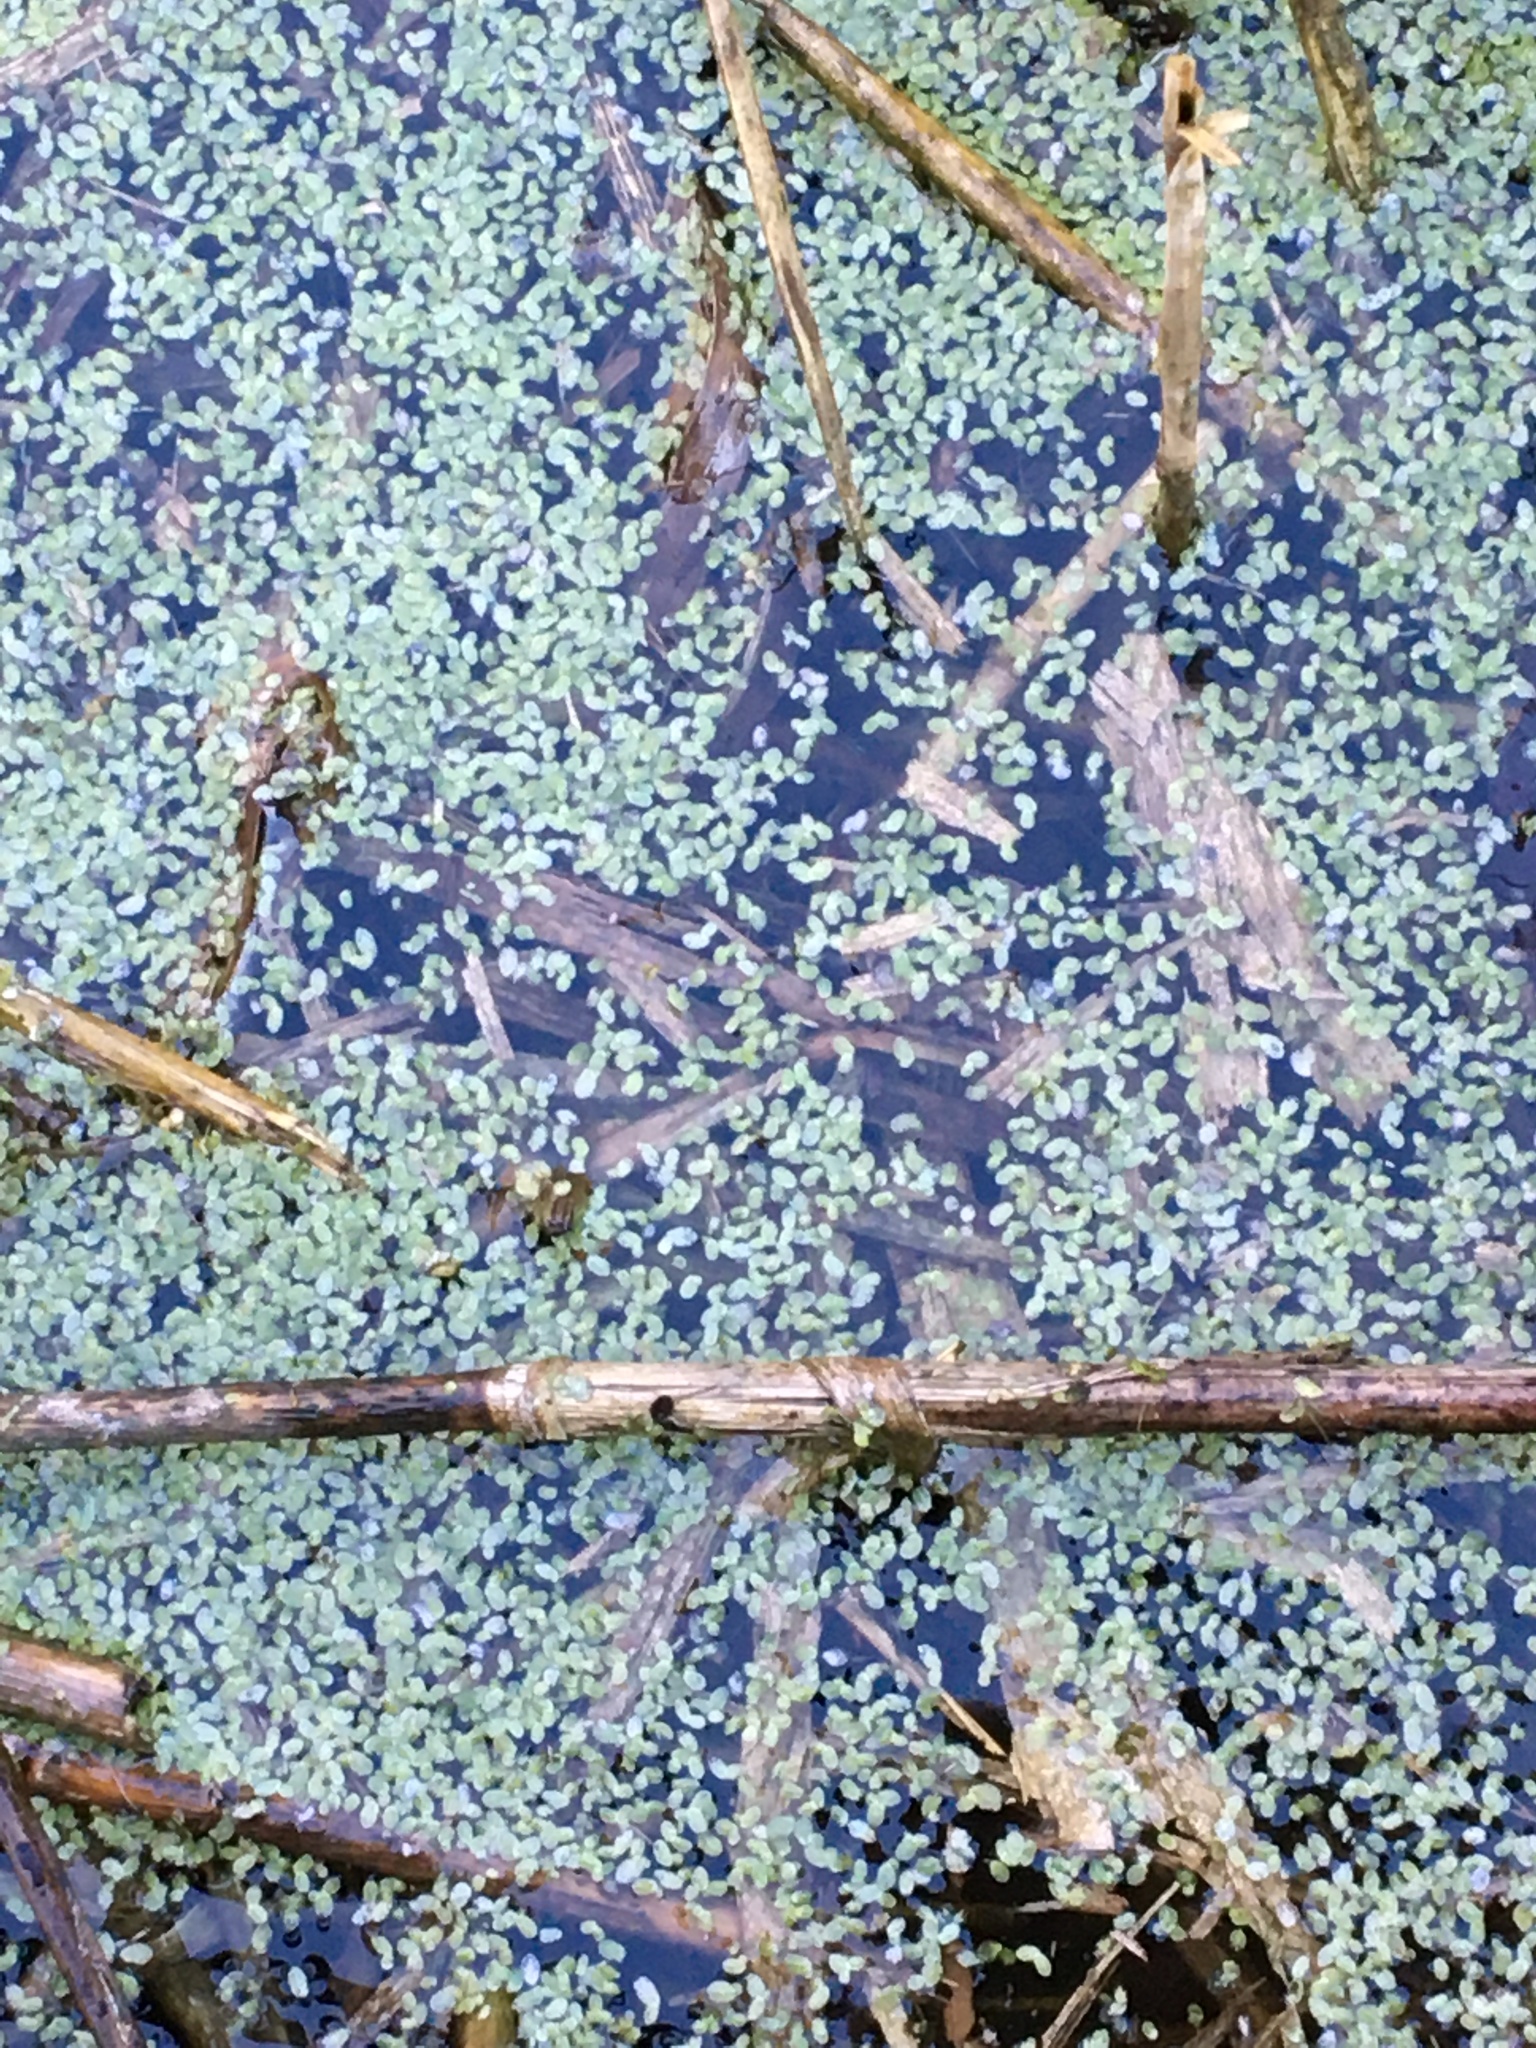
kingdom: Plantae
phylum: Tracheophyta
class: Liliopsida
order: Alismatales
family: Araceae
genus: Lemna
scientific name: Lemna
